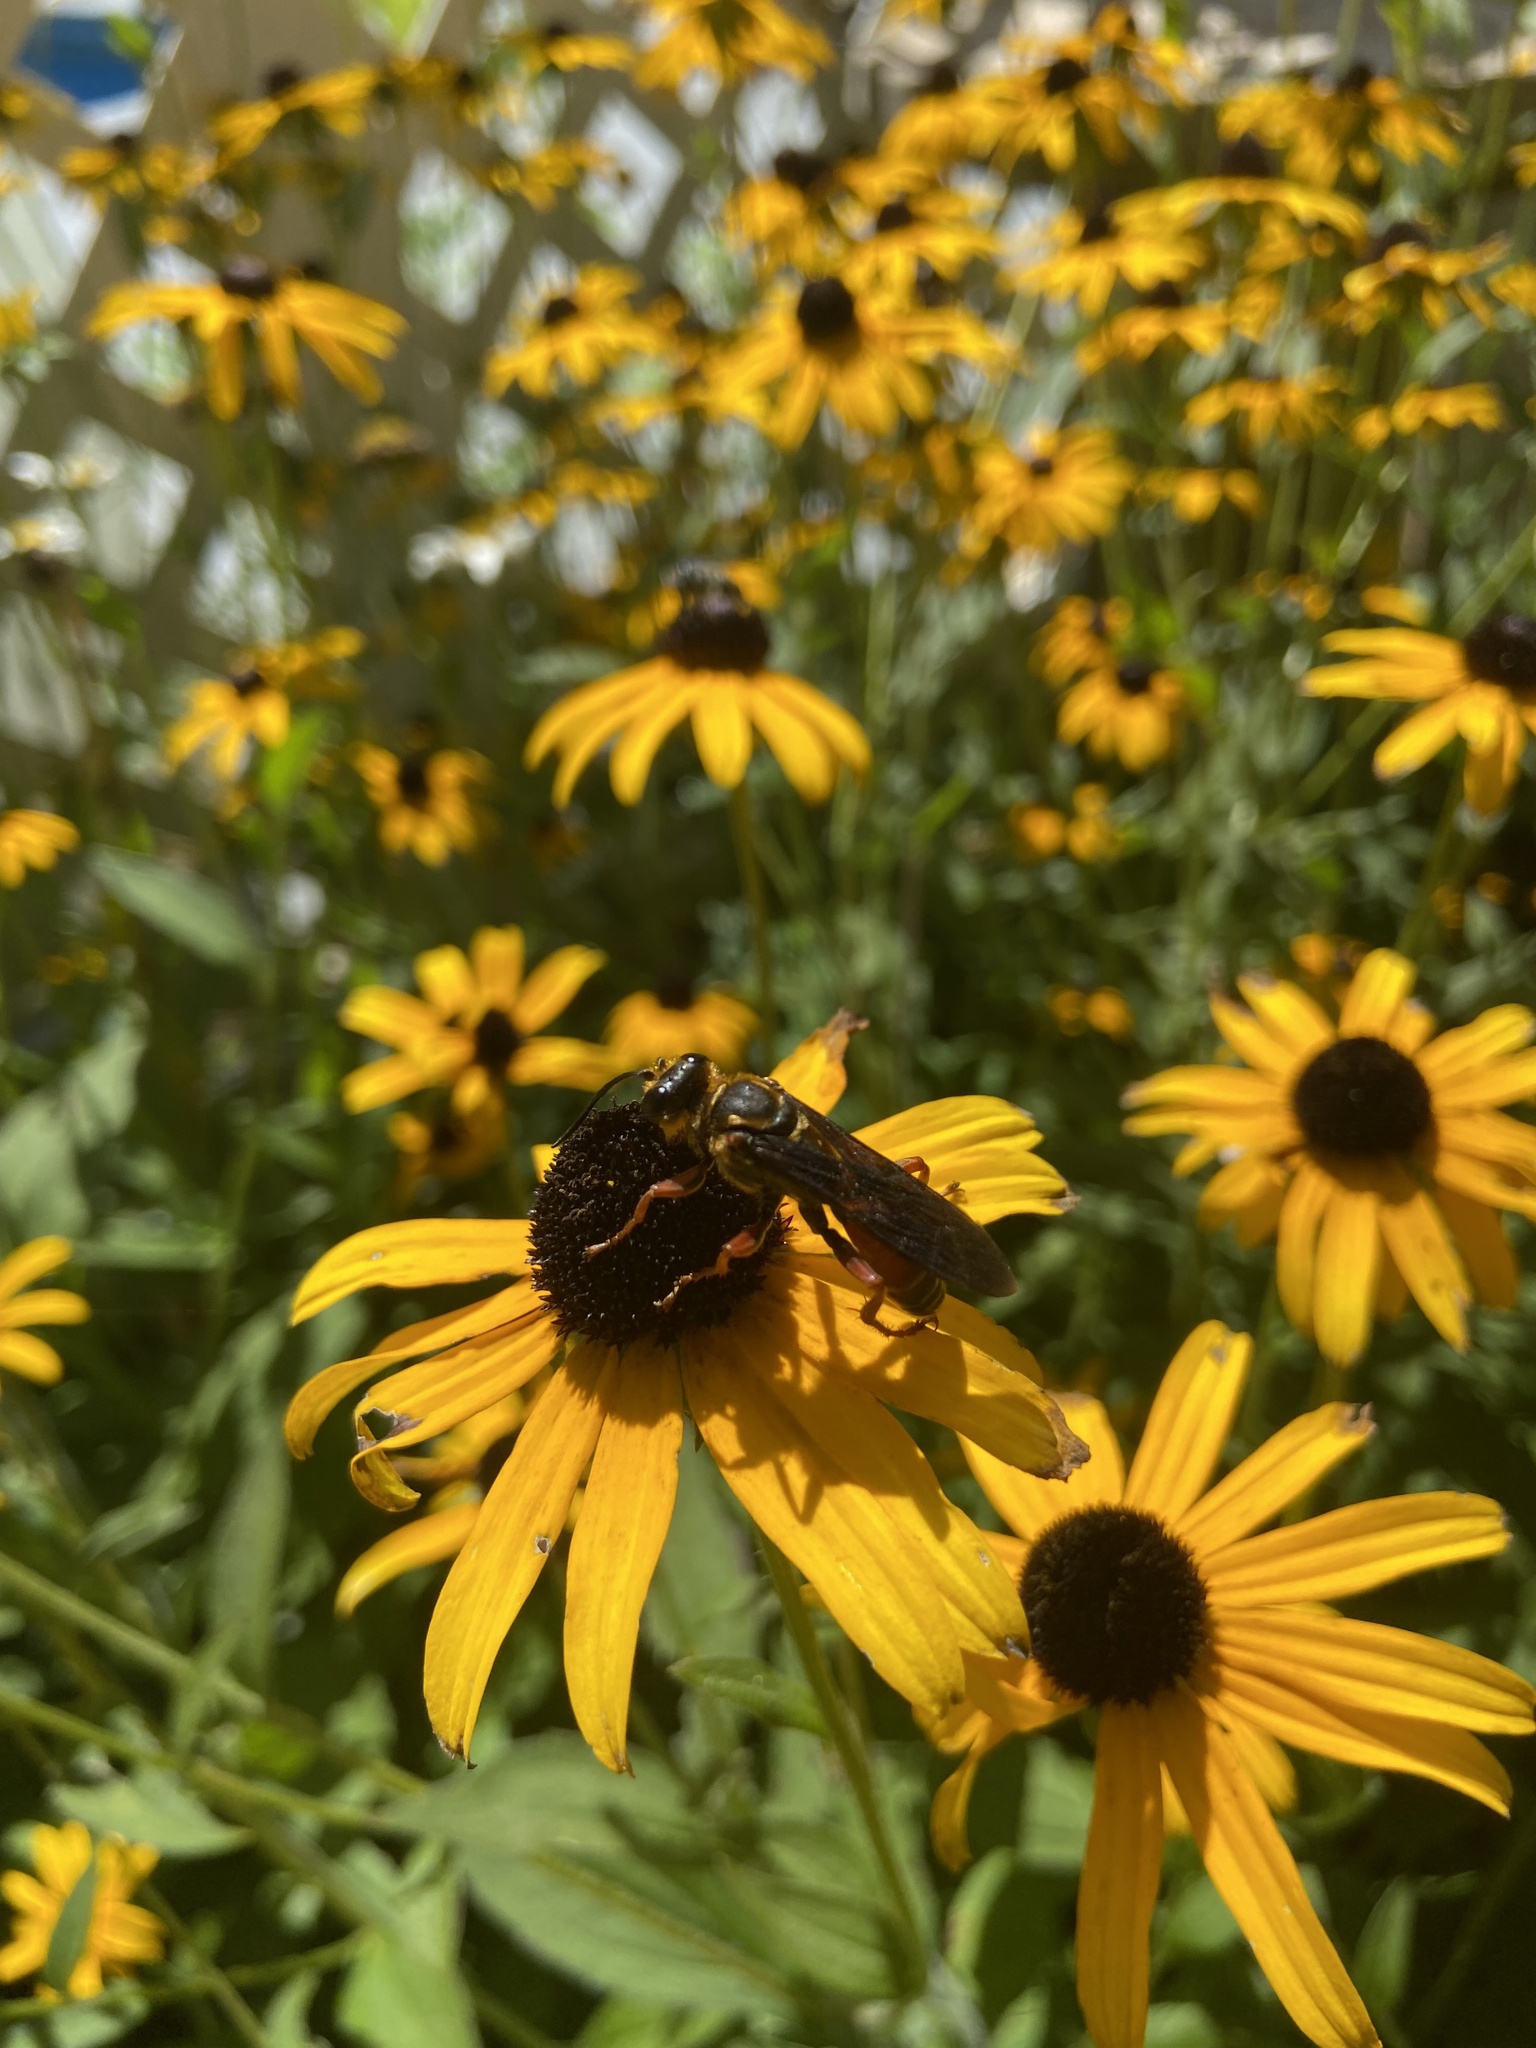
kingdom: Animalia
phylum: Arthropoda
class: Insecta
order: Hymenoptera
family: Sphecidae
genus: Sphex
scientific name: Sphex ichneumoneus
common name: Great golden digger wasp
